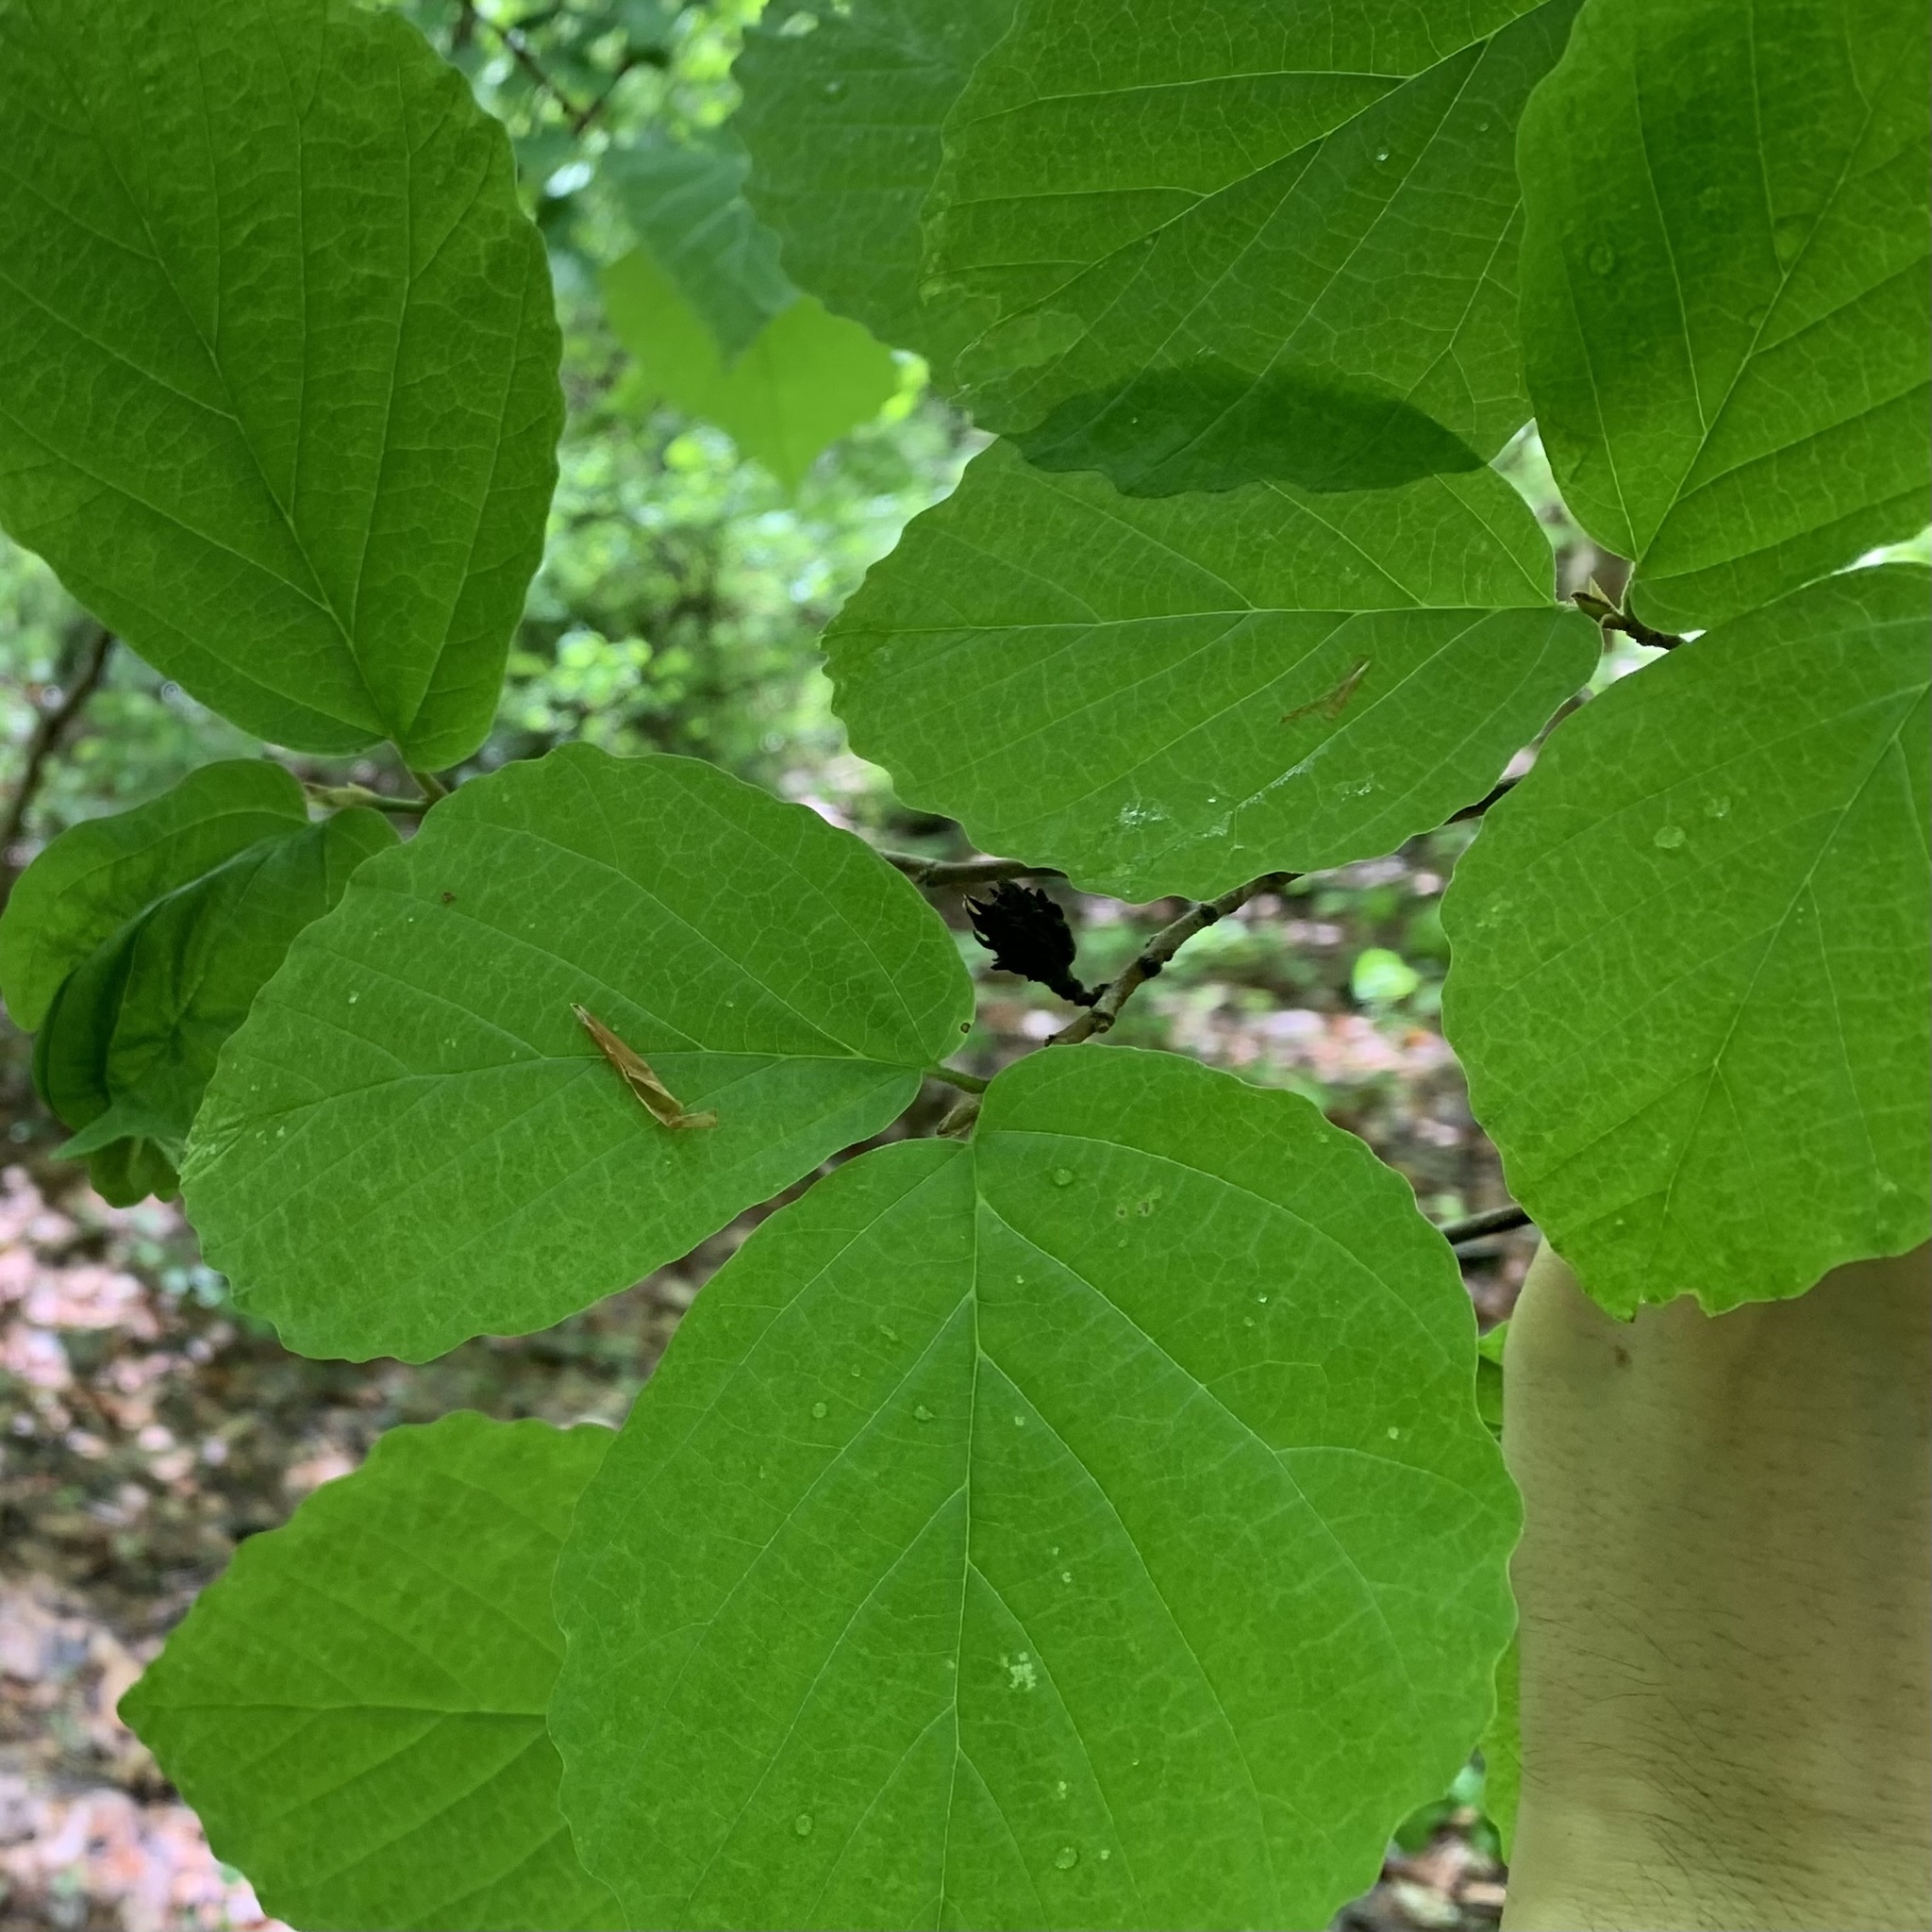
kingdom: Animalia
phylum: Arthropoda
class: Insecta
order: Hemiptera
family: Aphididae
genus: Hamamelistes
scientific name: Hamamelistes spinosus
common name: Witch hazel gall aphid
